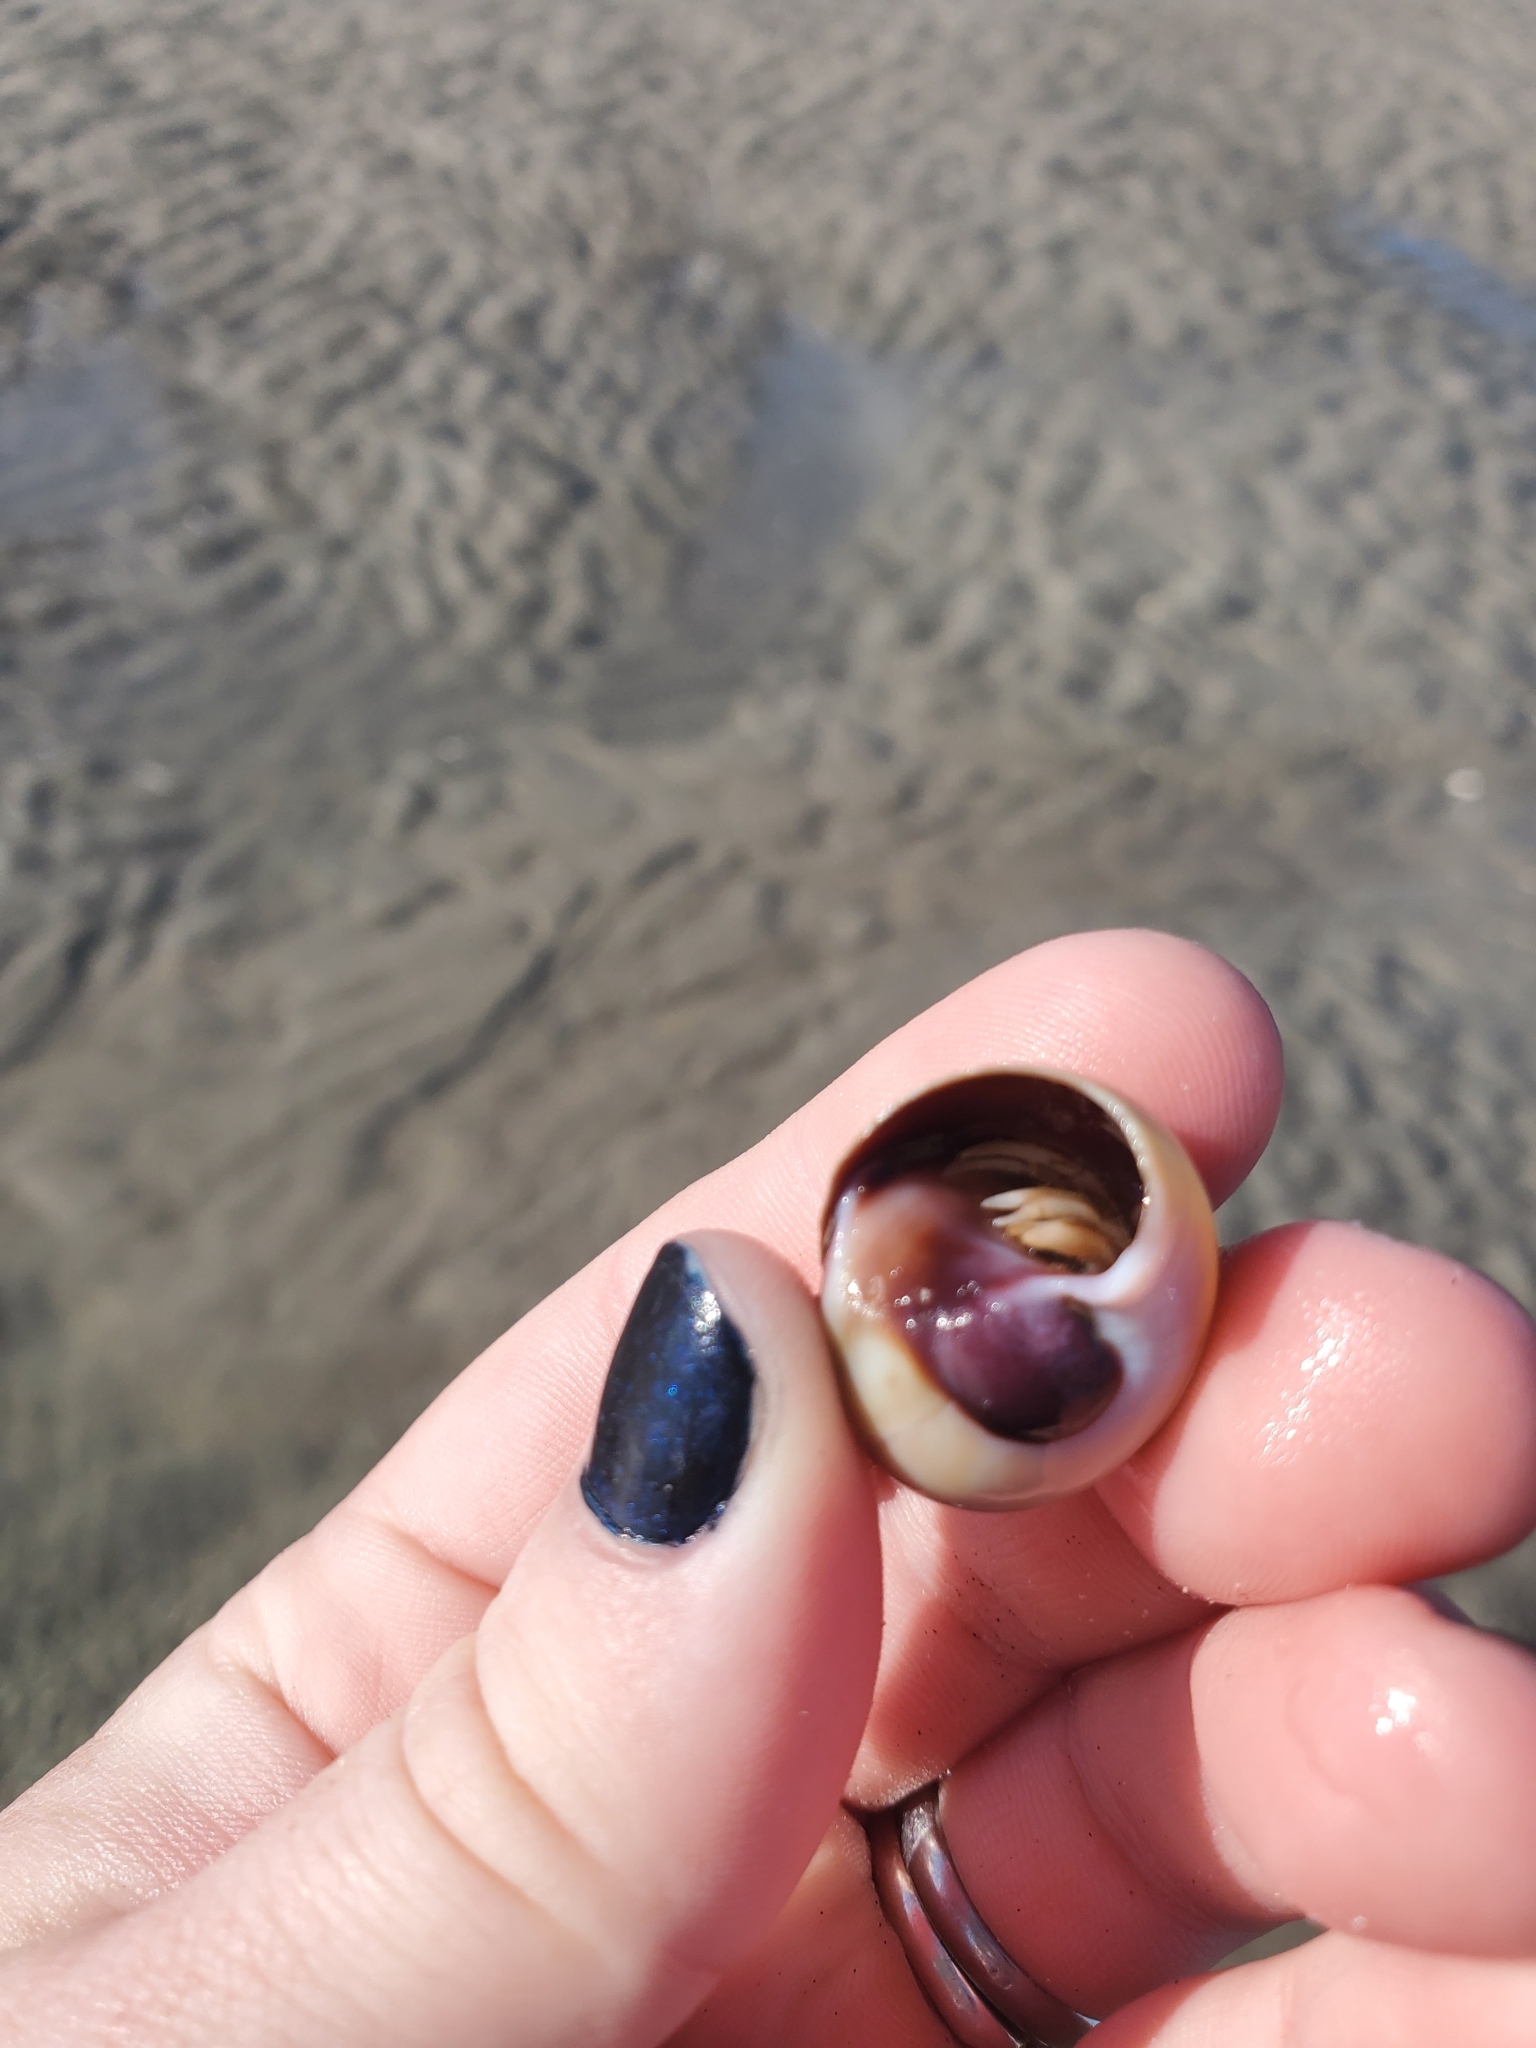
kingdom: Animalia
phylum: Mollusca
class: Gastropoda
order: Littorinimorpha
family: Naticidae
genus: Neverita
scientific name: Neverita duplicata
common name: Lobed moonsnail
